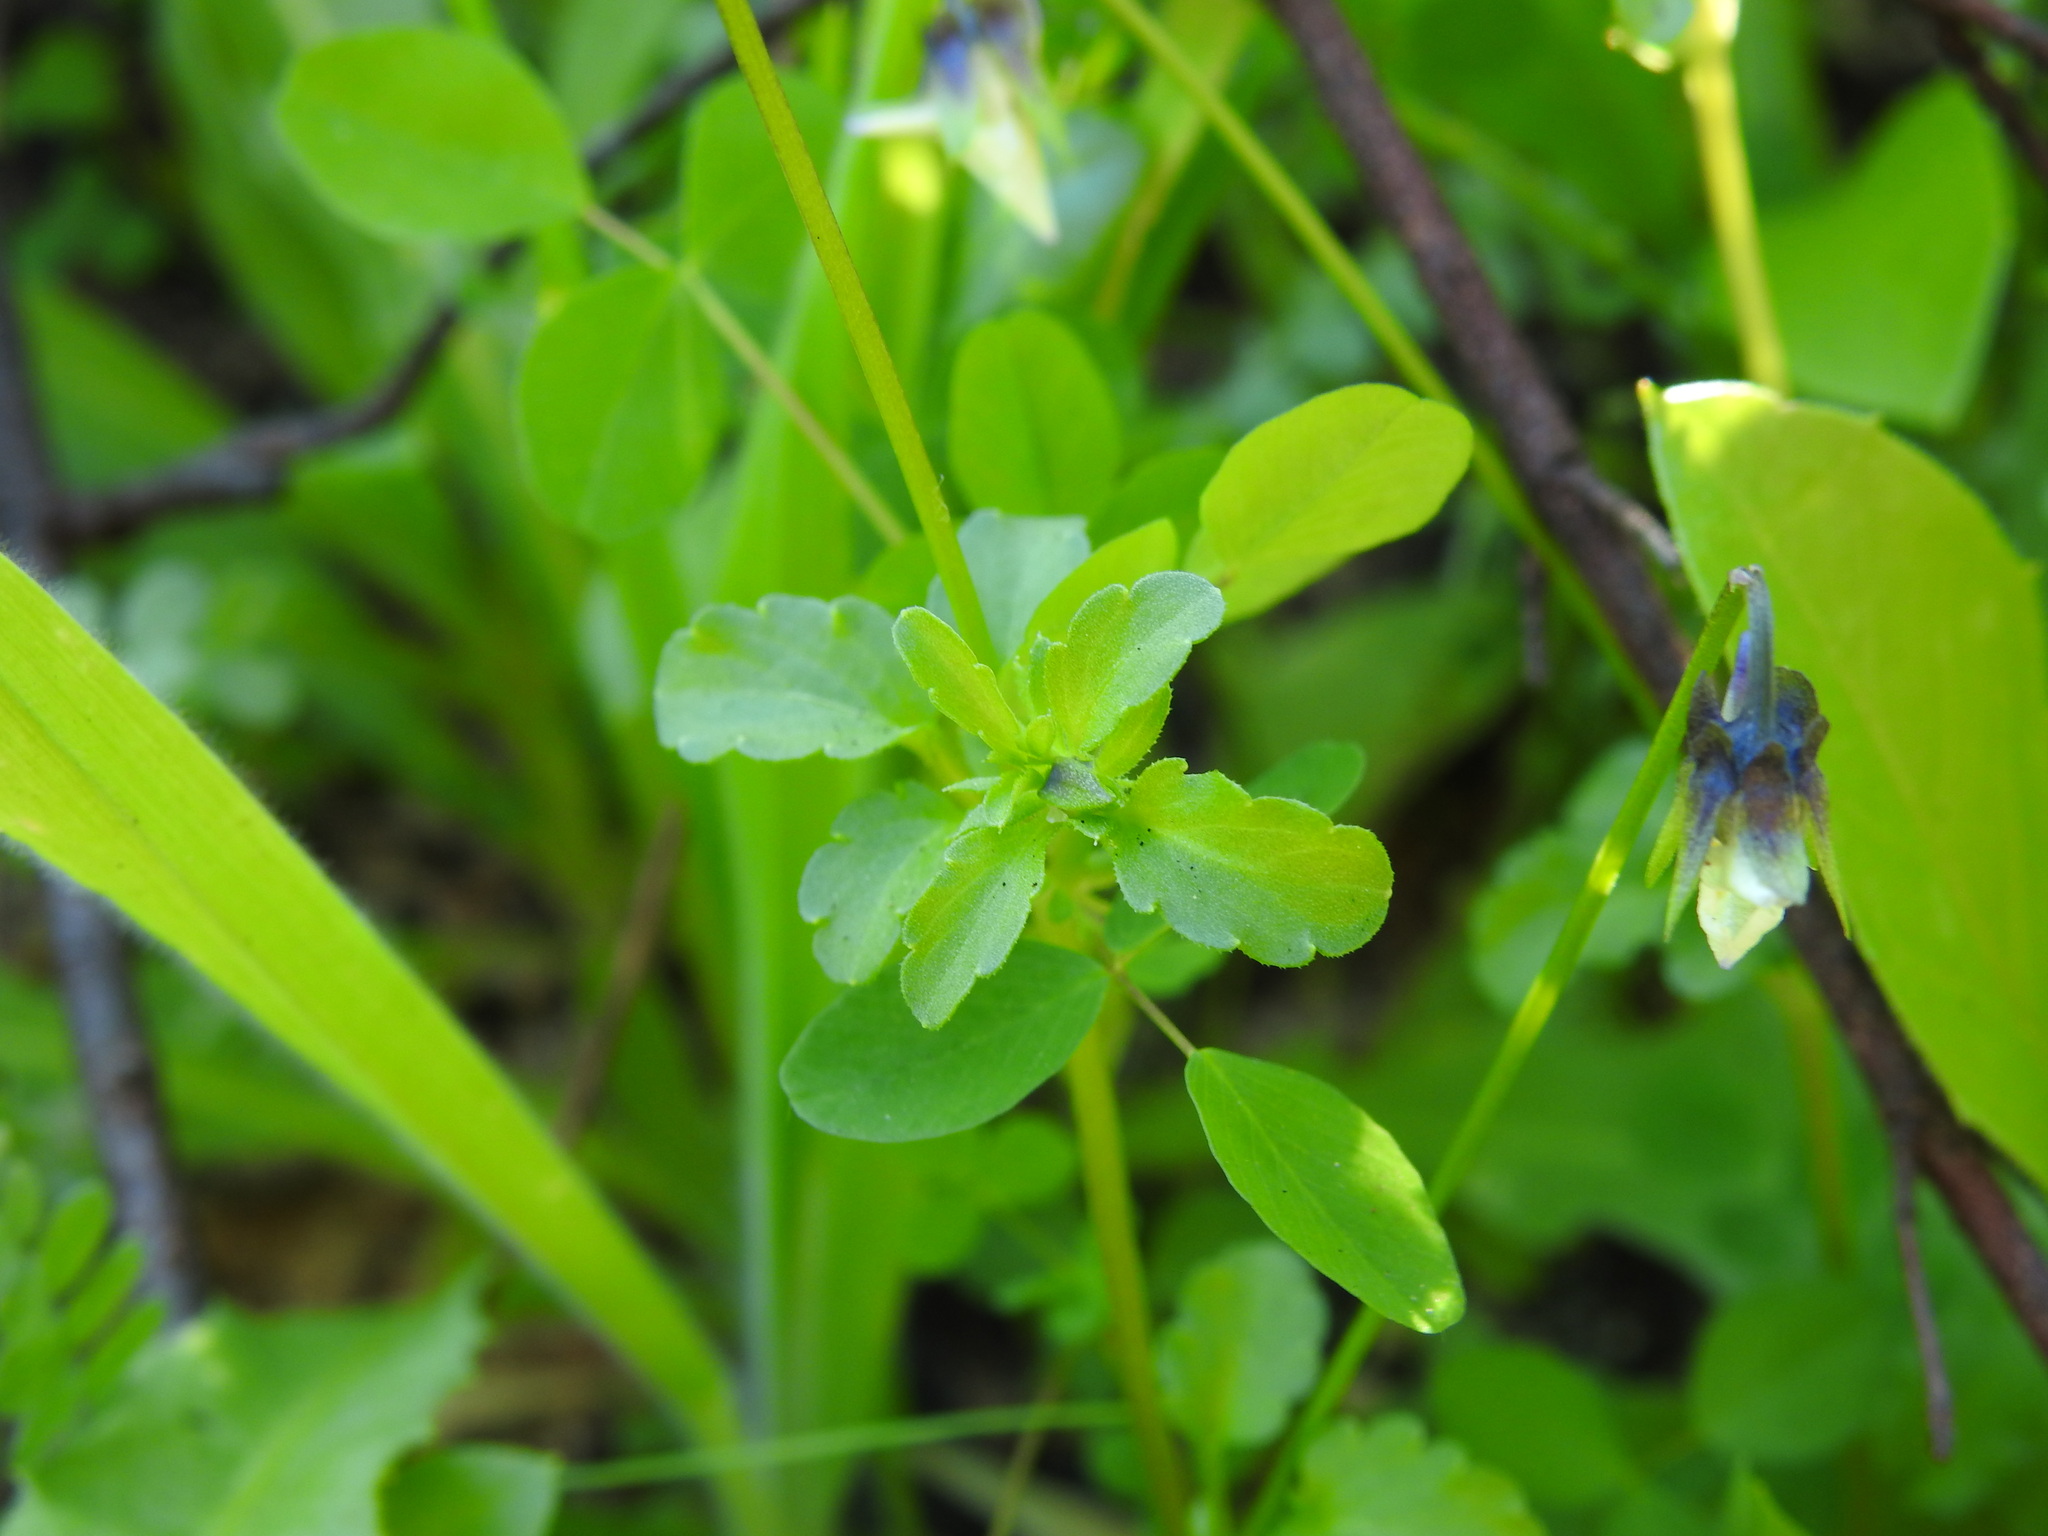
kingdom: Plantae
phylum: Tracheophyta
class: Magnoliopsida
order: Malpighiales
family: Violaceae
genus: Viola
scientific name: Viola kitaibeliana
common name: Dwarf pansy
